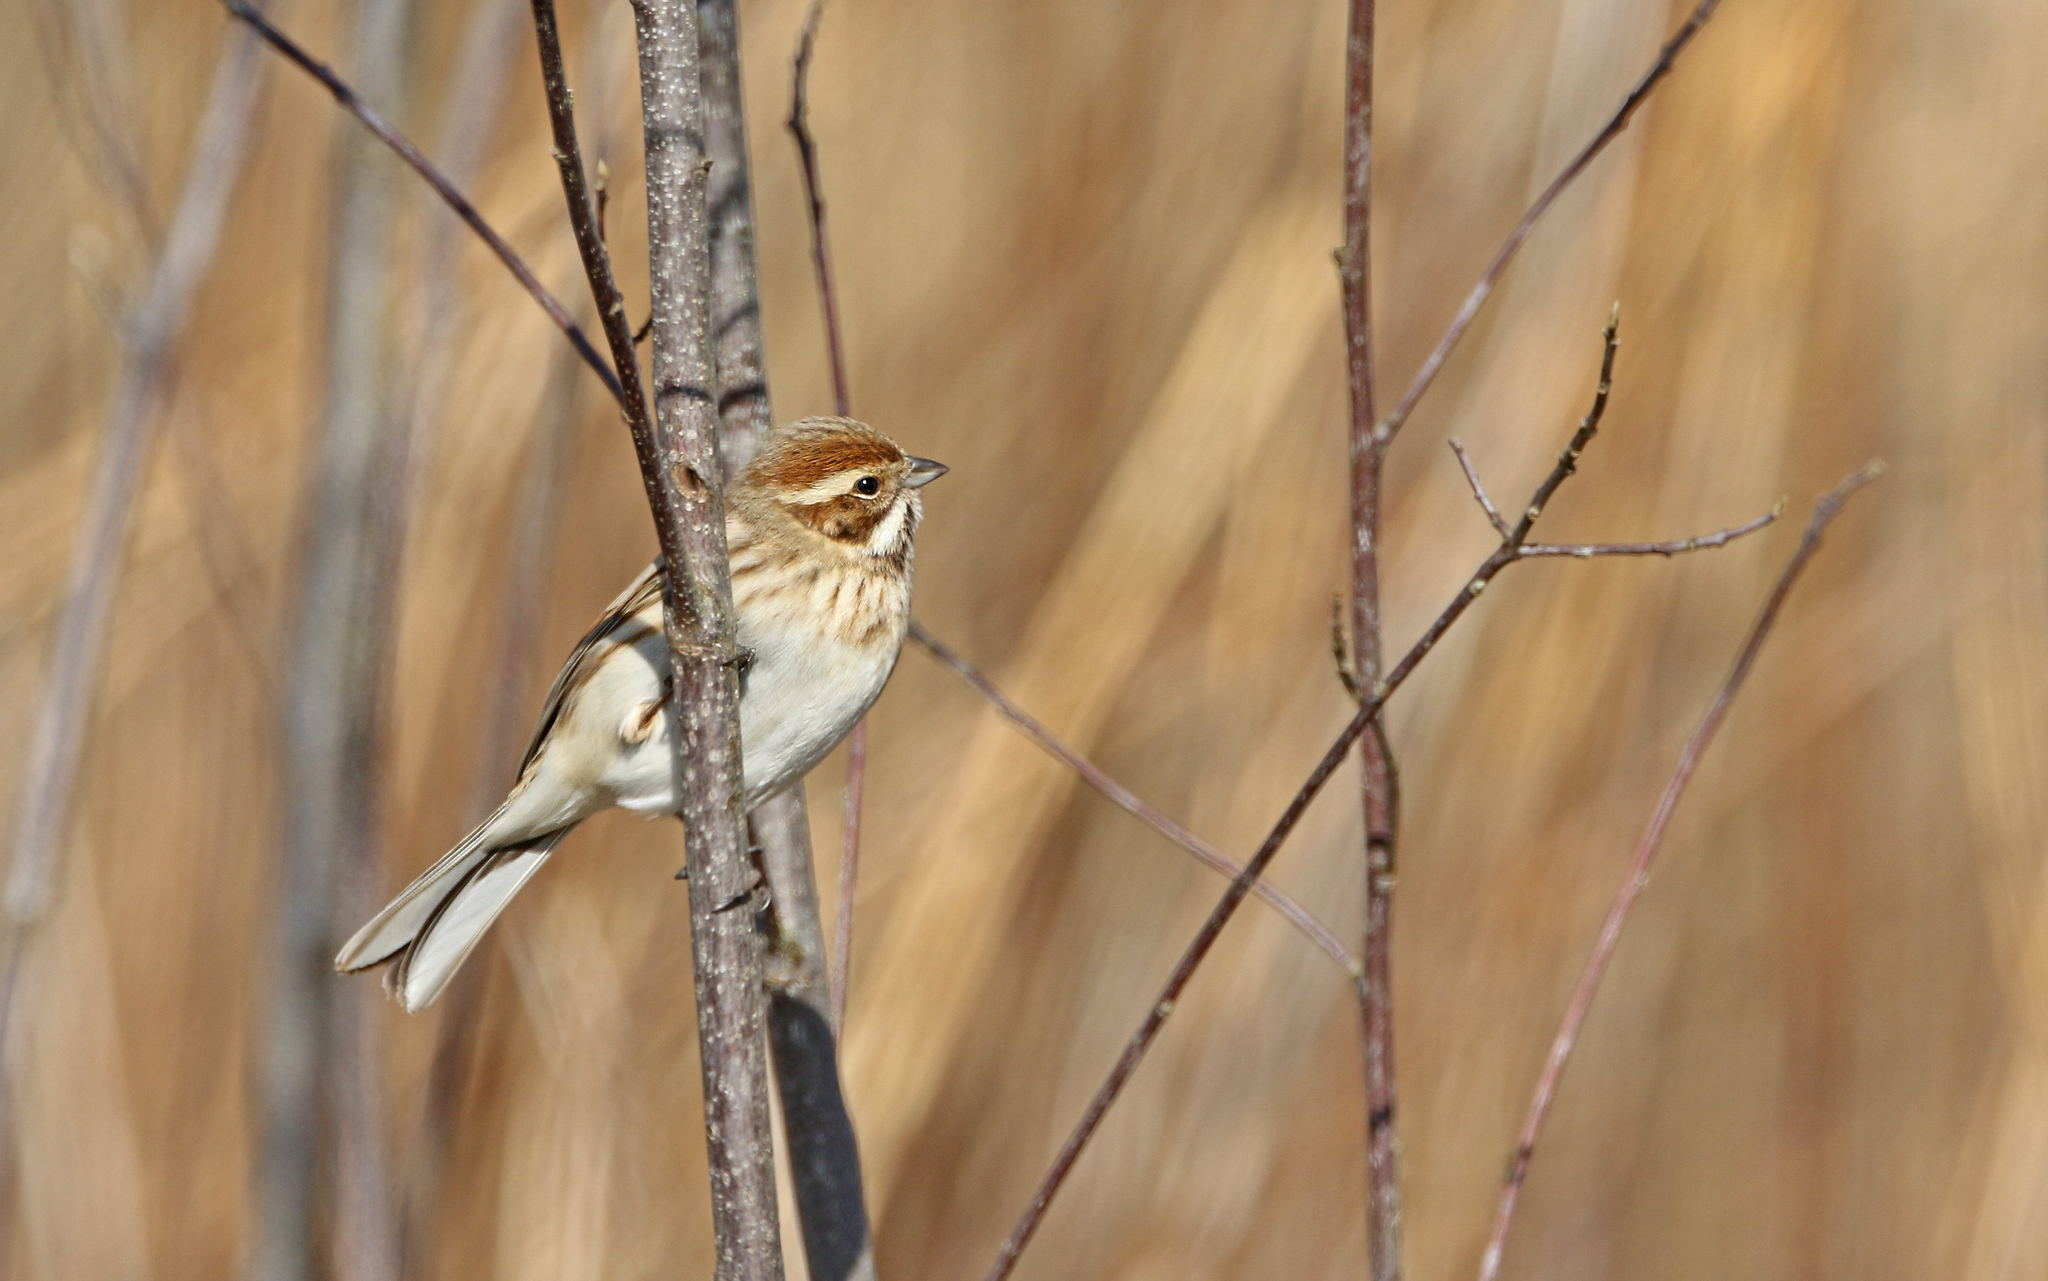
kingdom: Animalia
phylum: Chordata
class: Aves
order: Passeriformes
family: Emberizidae
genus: Emberiza
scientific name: Emberiza schoeniclus
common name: Reed bunting
